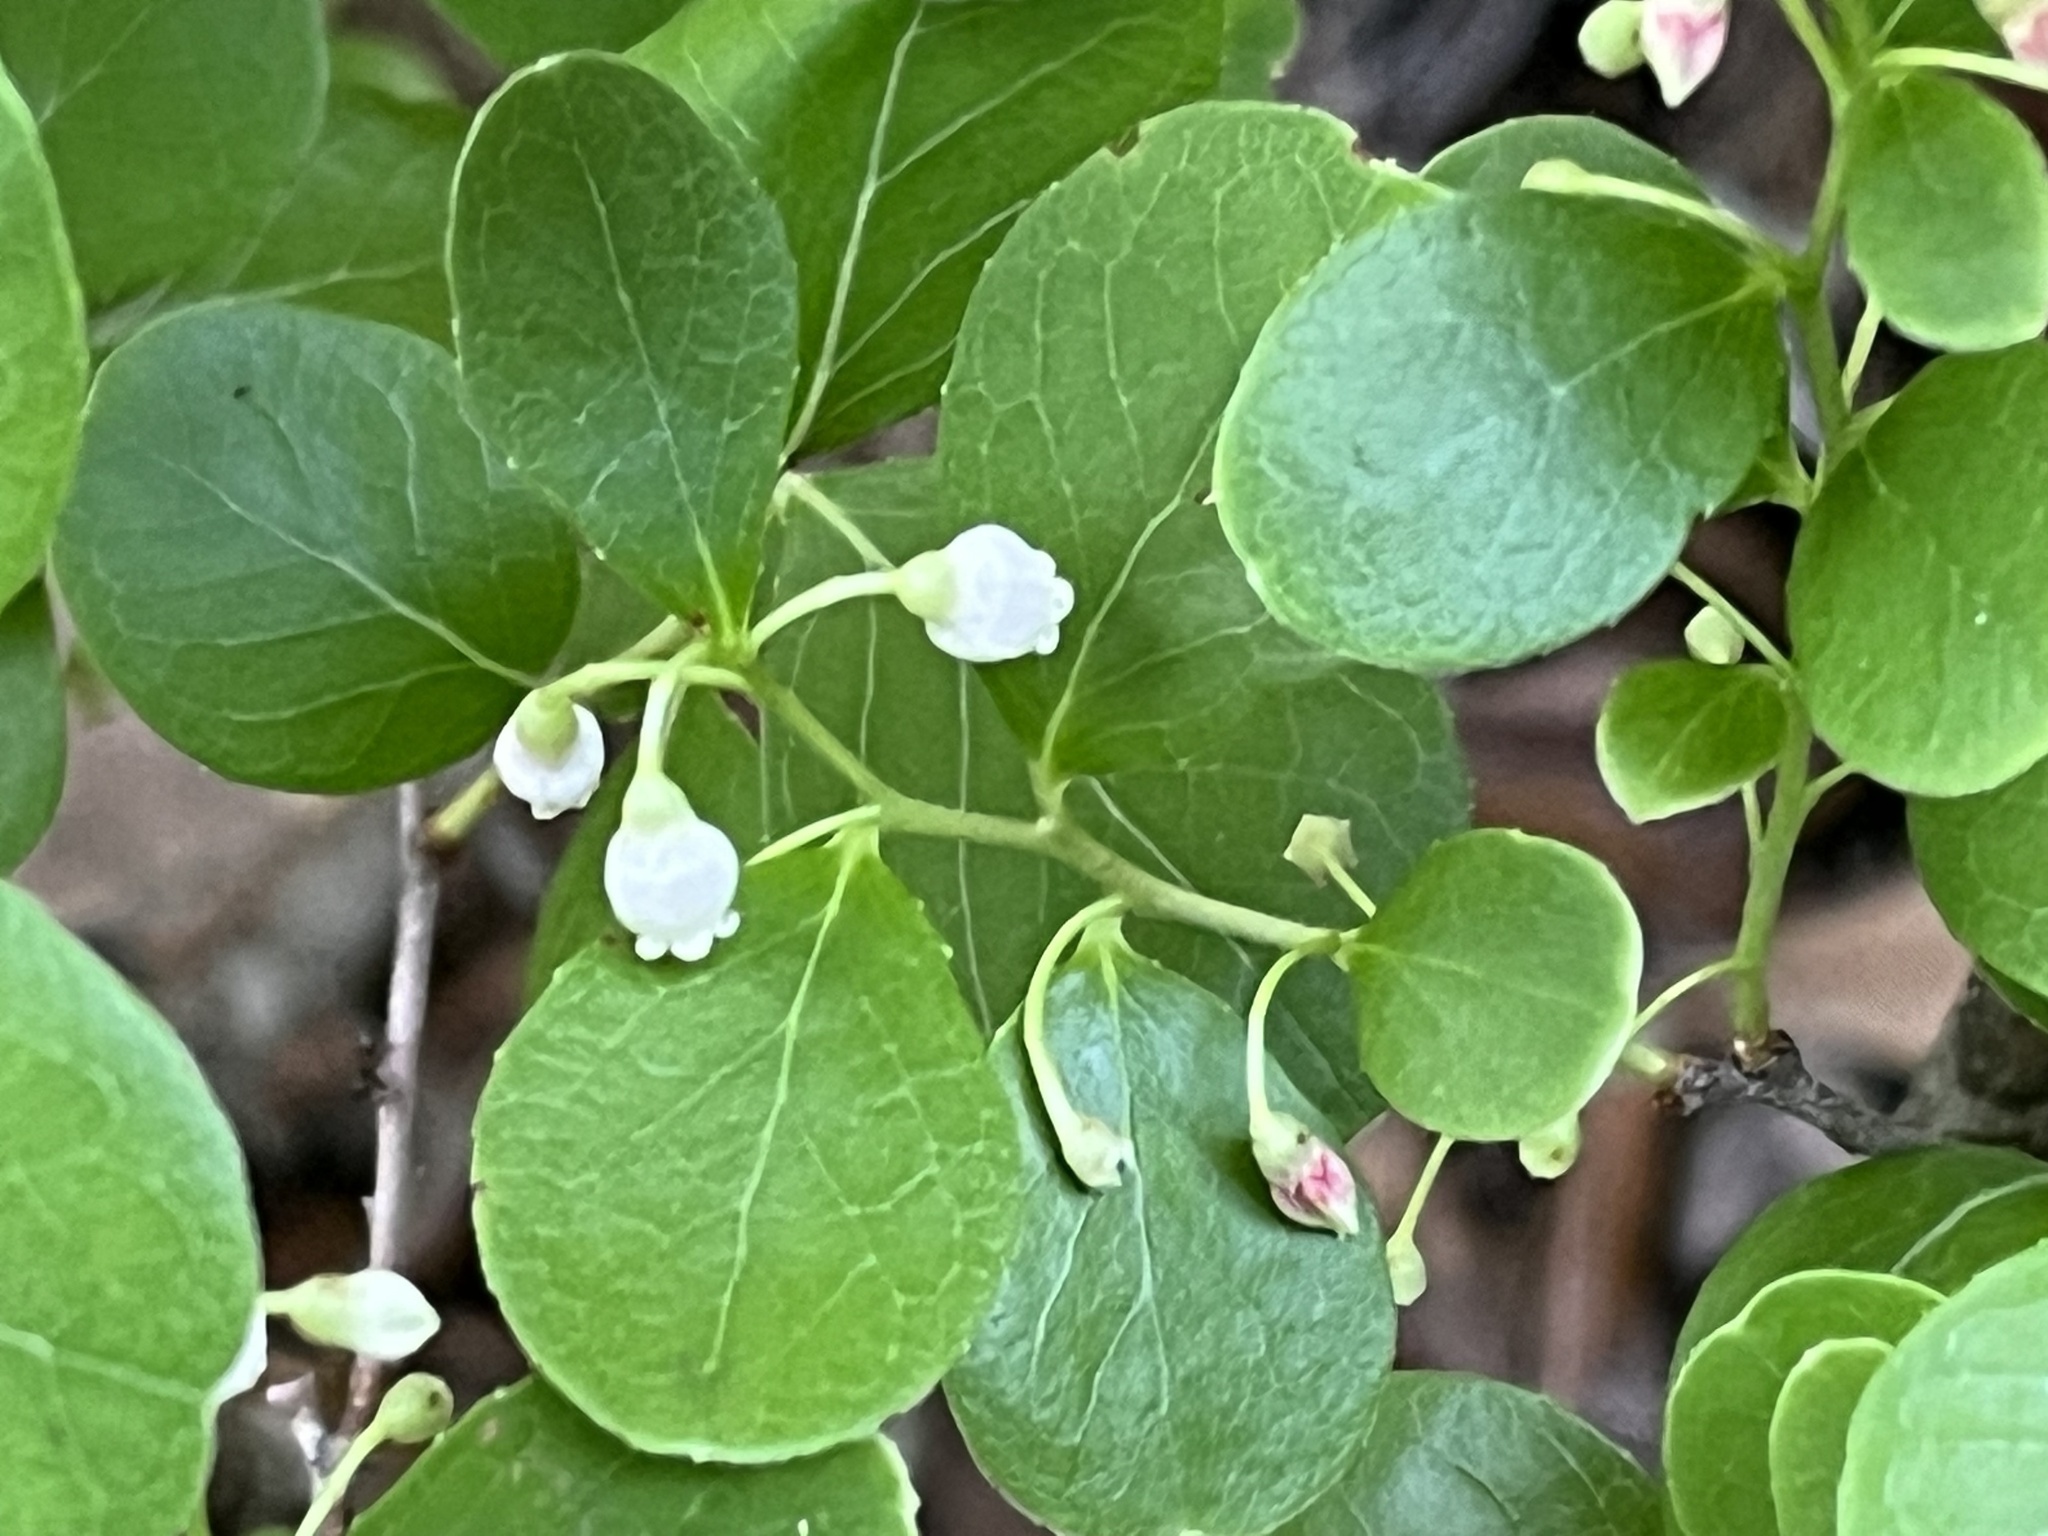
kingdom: Plantae
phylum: Tracheophyta
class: Magnoliopsida
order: Ericales
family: Ericaceae
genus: Vaccinium
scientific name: Vaccinium arboreum
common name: Farkleberry
